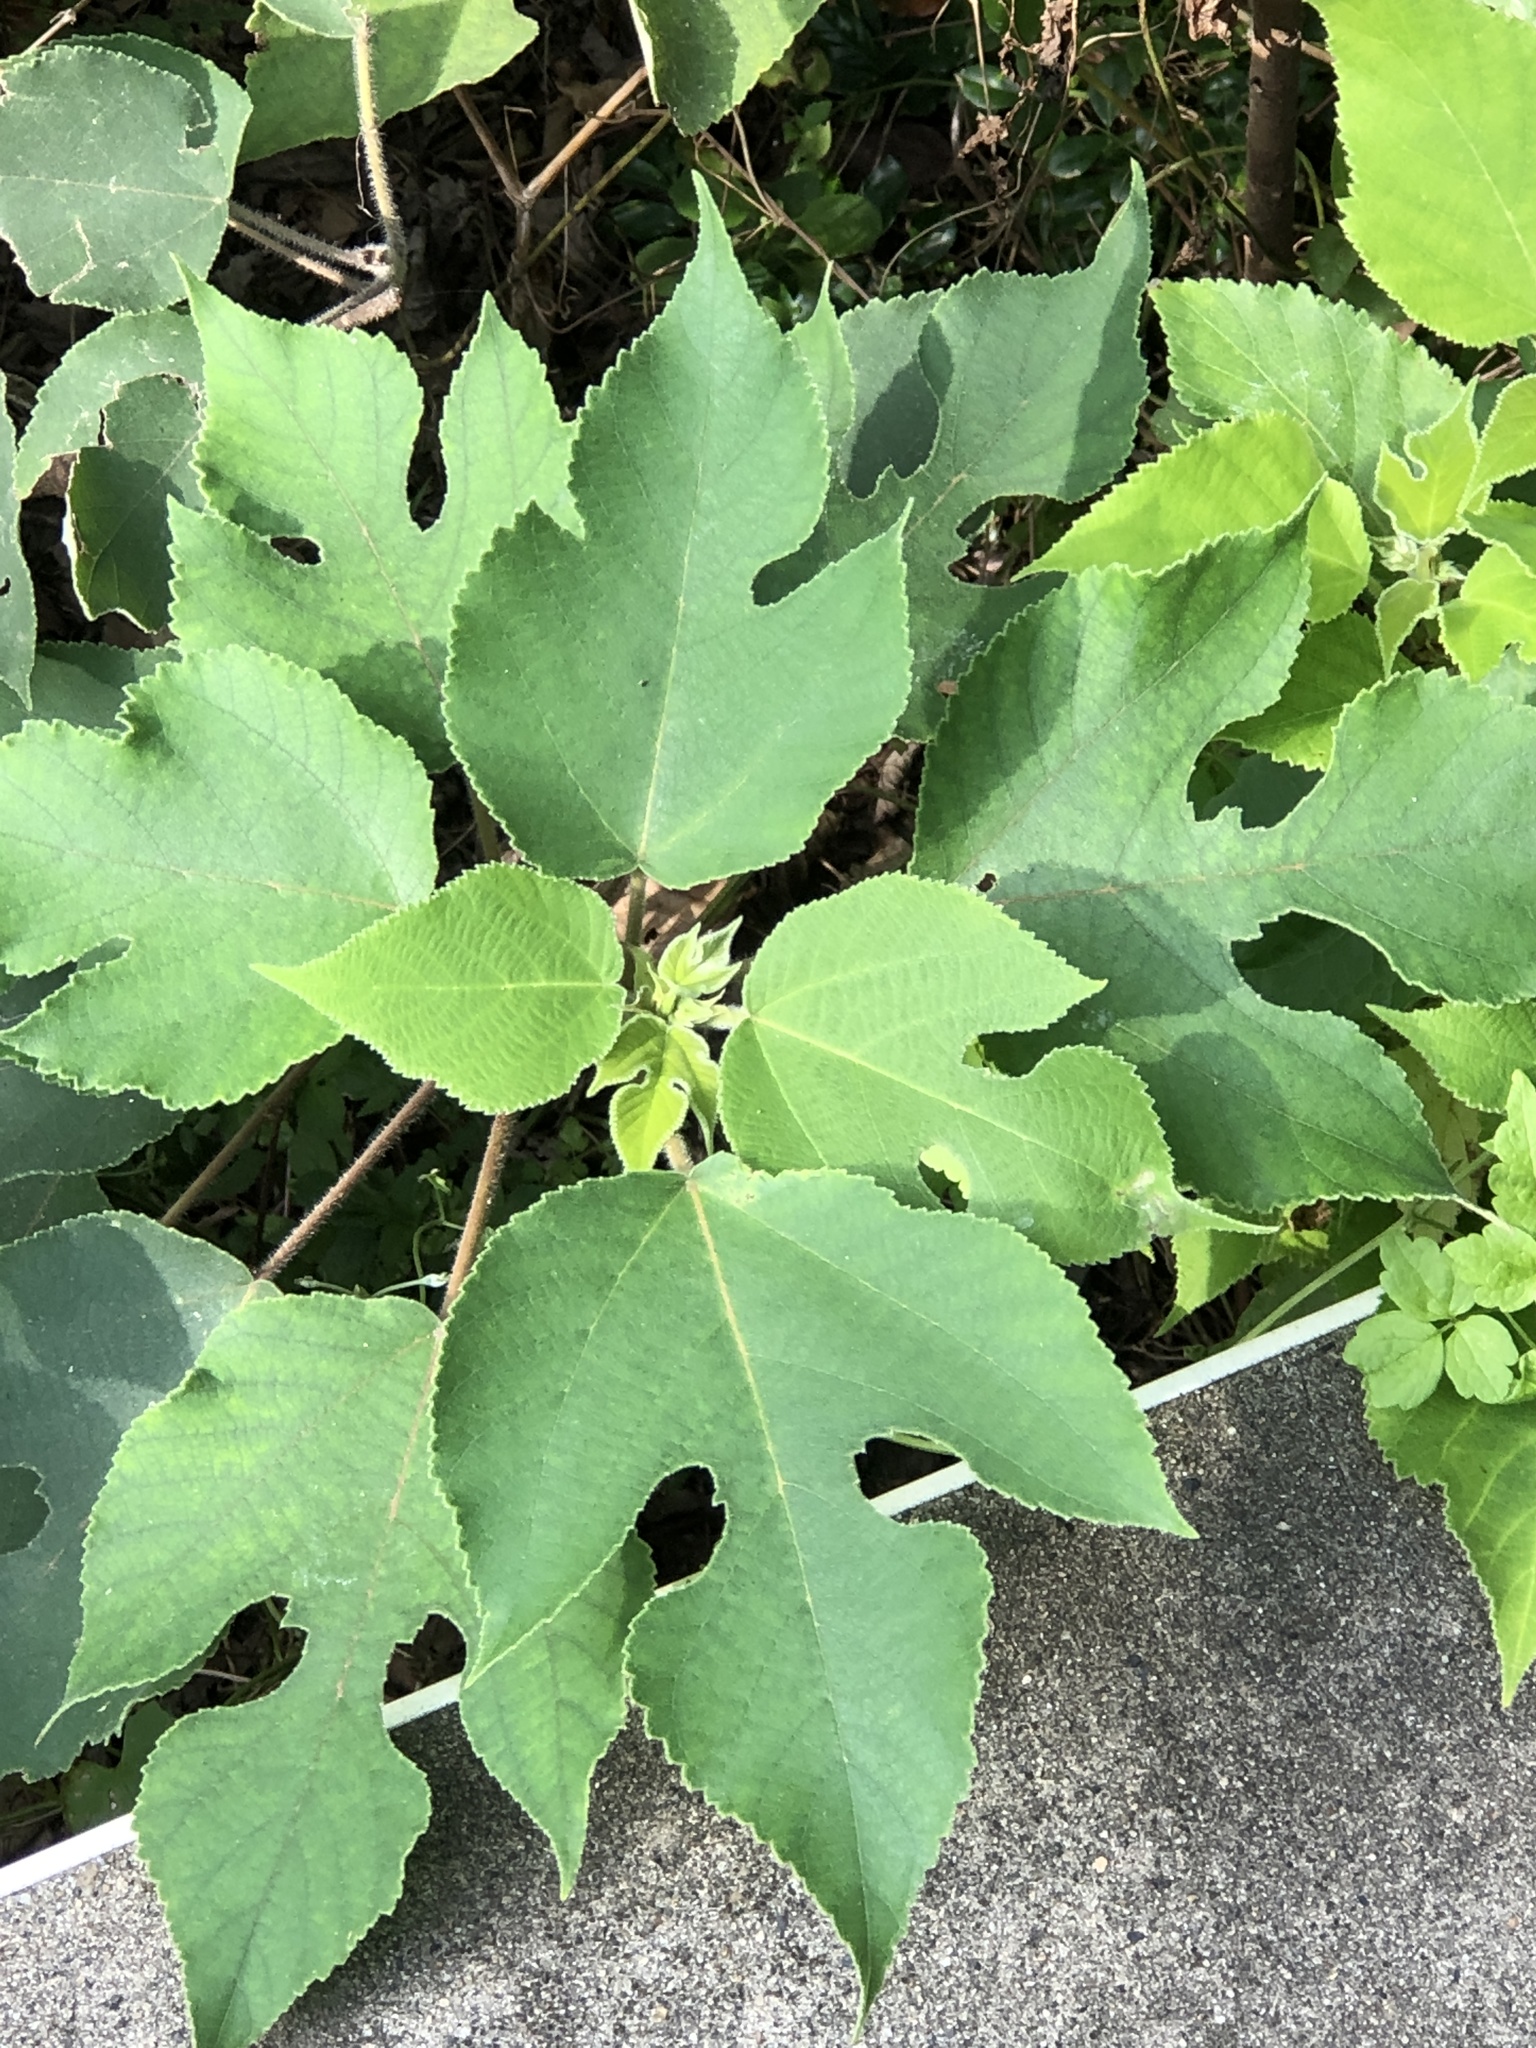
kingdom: Plantae
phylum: Tracheophyta
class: Magnoliopsida
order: Rosales
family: Moraceae
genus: Broussonetia
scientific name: Broussonetia papyrifera
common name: Paper mulberry
